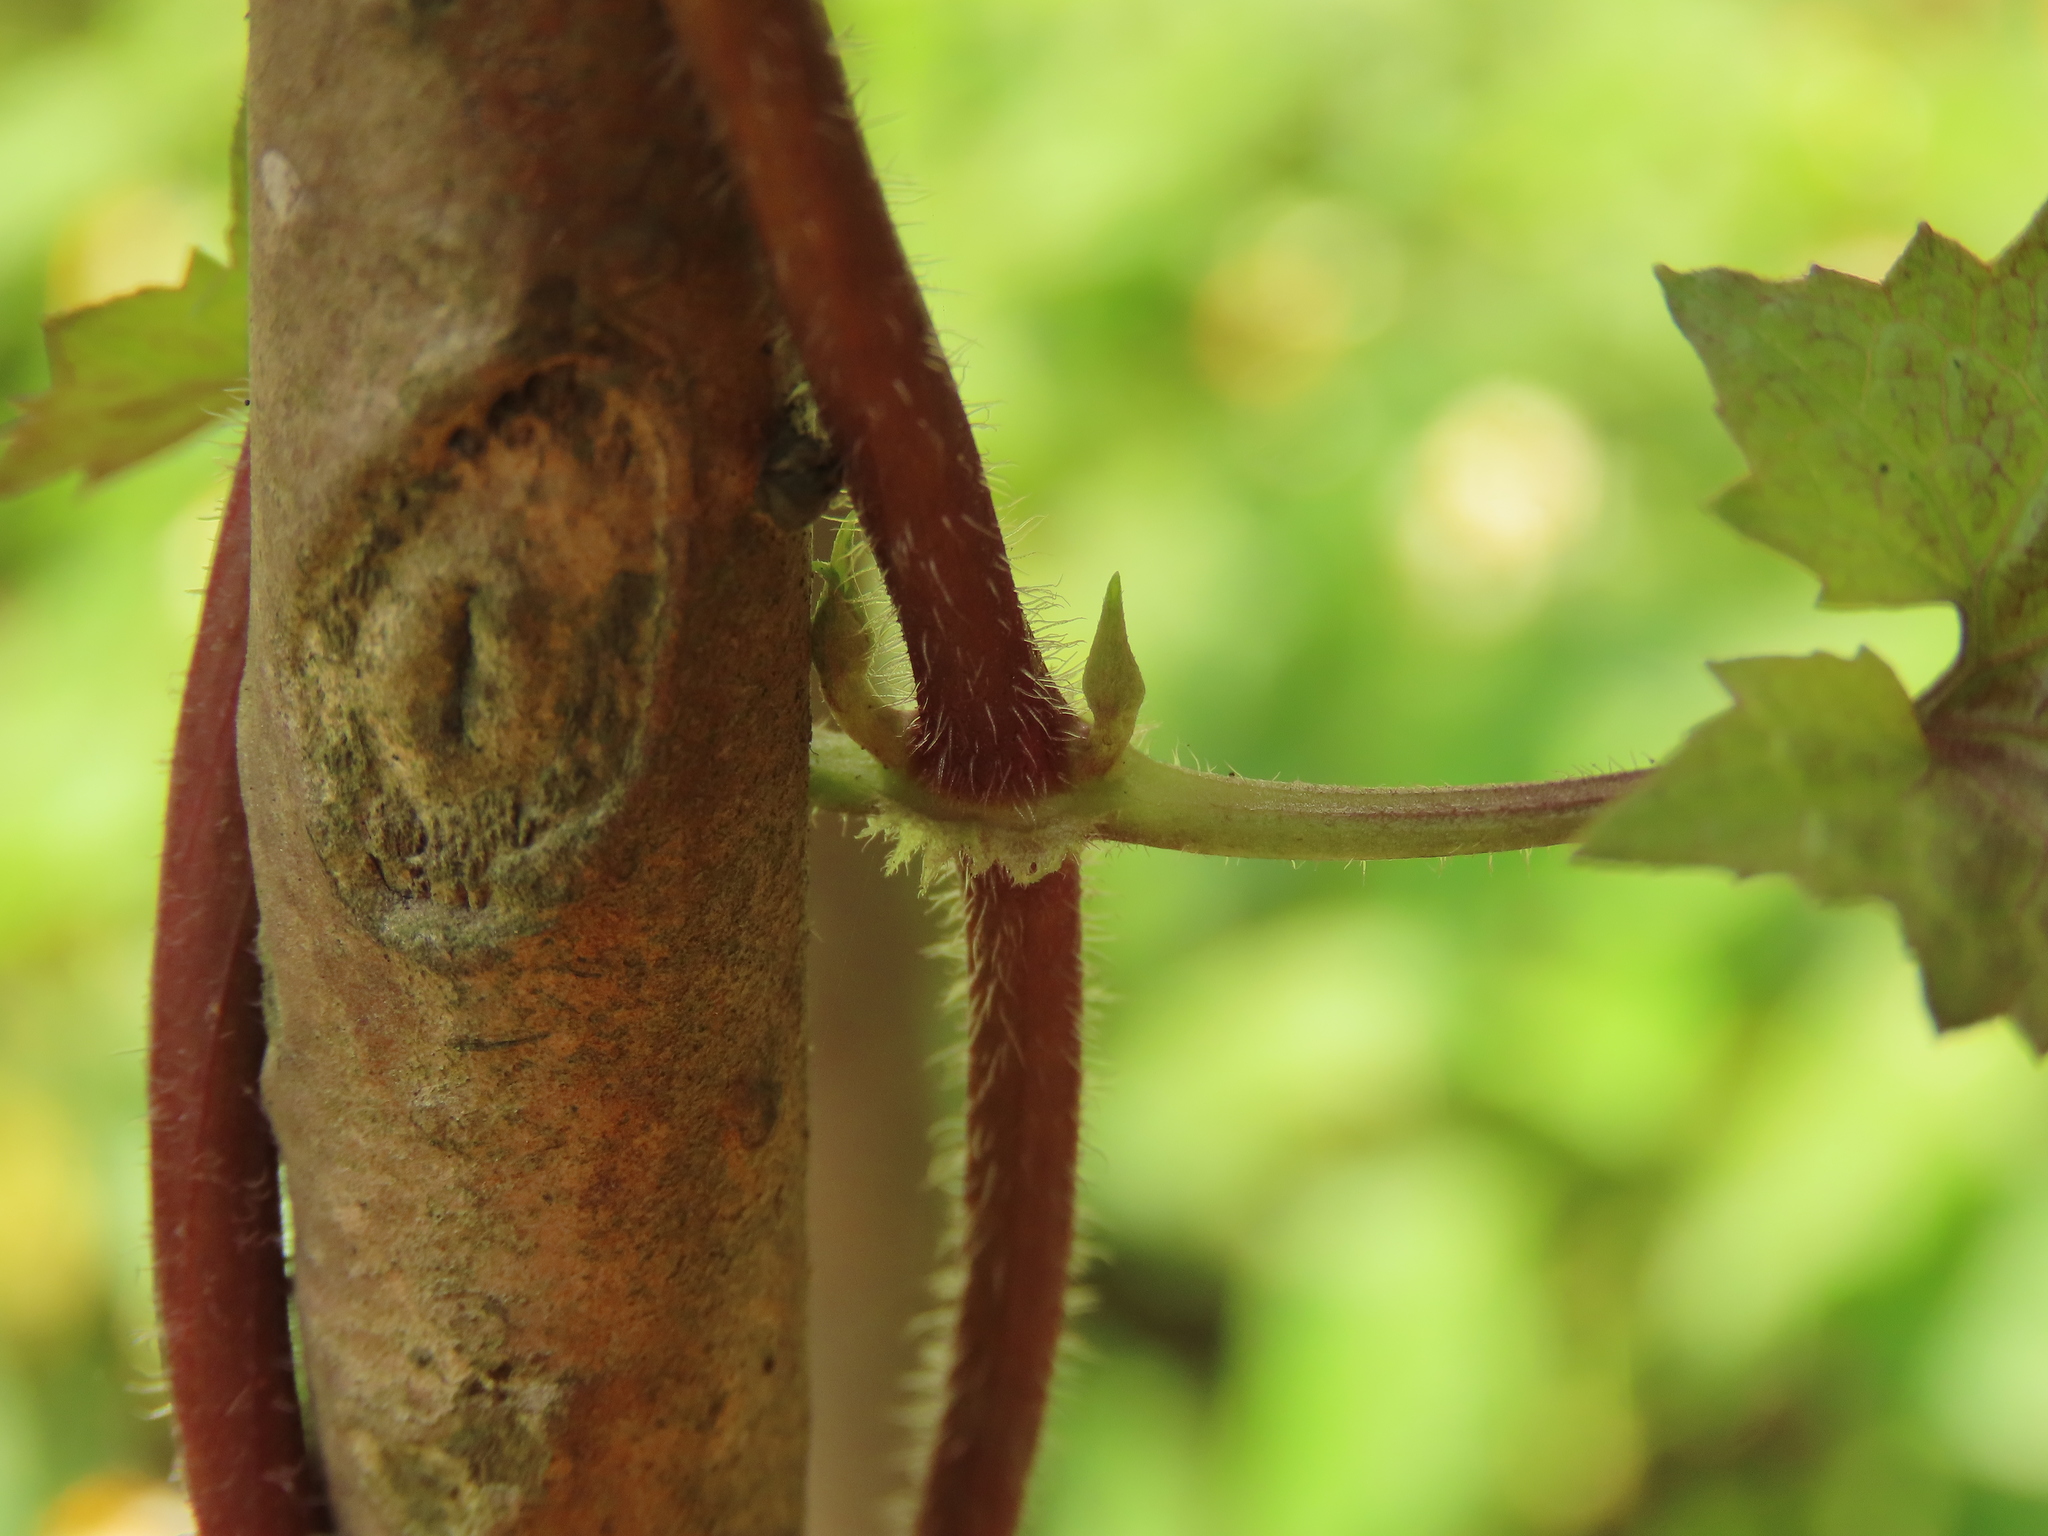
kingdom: Plantae
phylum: Tracheophyta
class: Magnoliopsida
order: Asterales
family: Asteraceae
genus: Mikania
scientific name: Mikania micrantha
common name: Mile-a-minute
